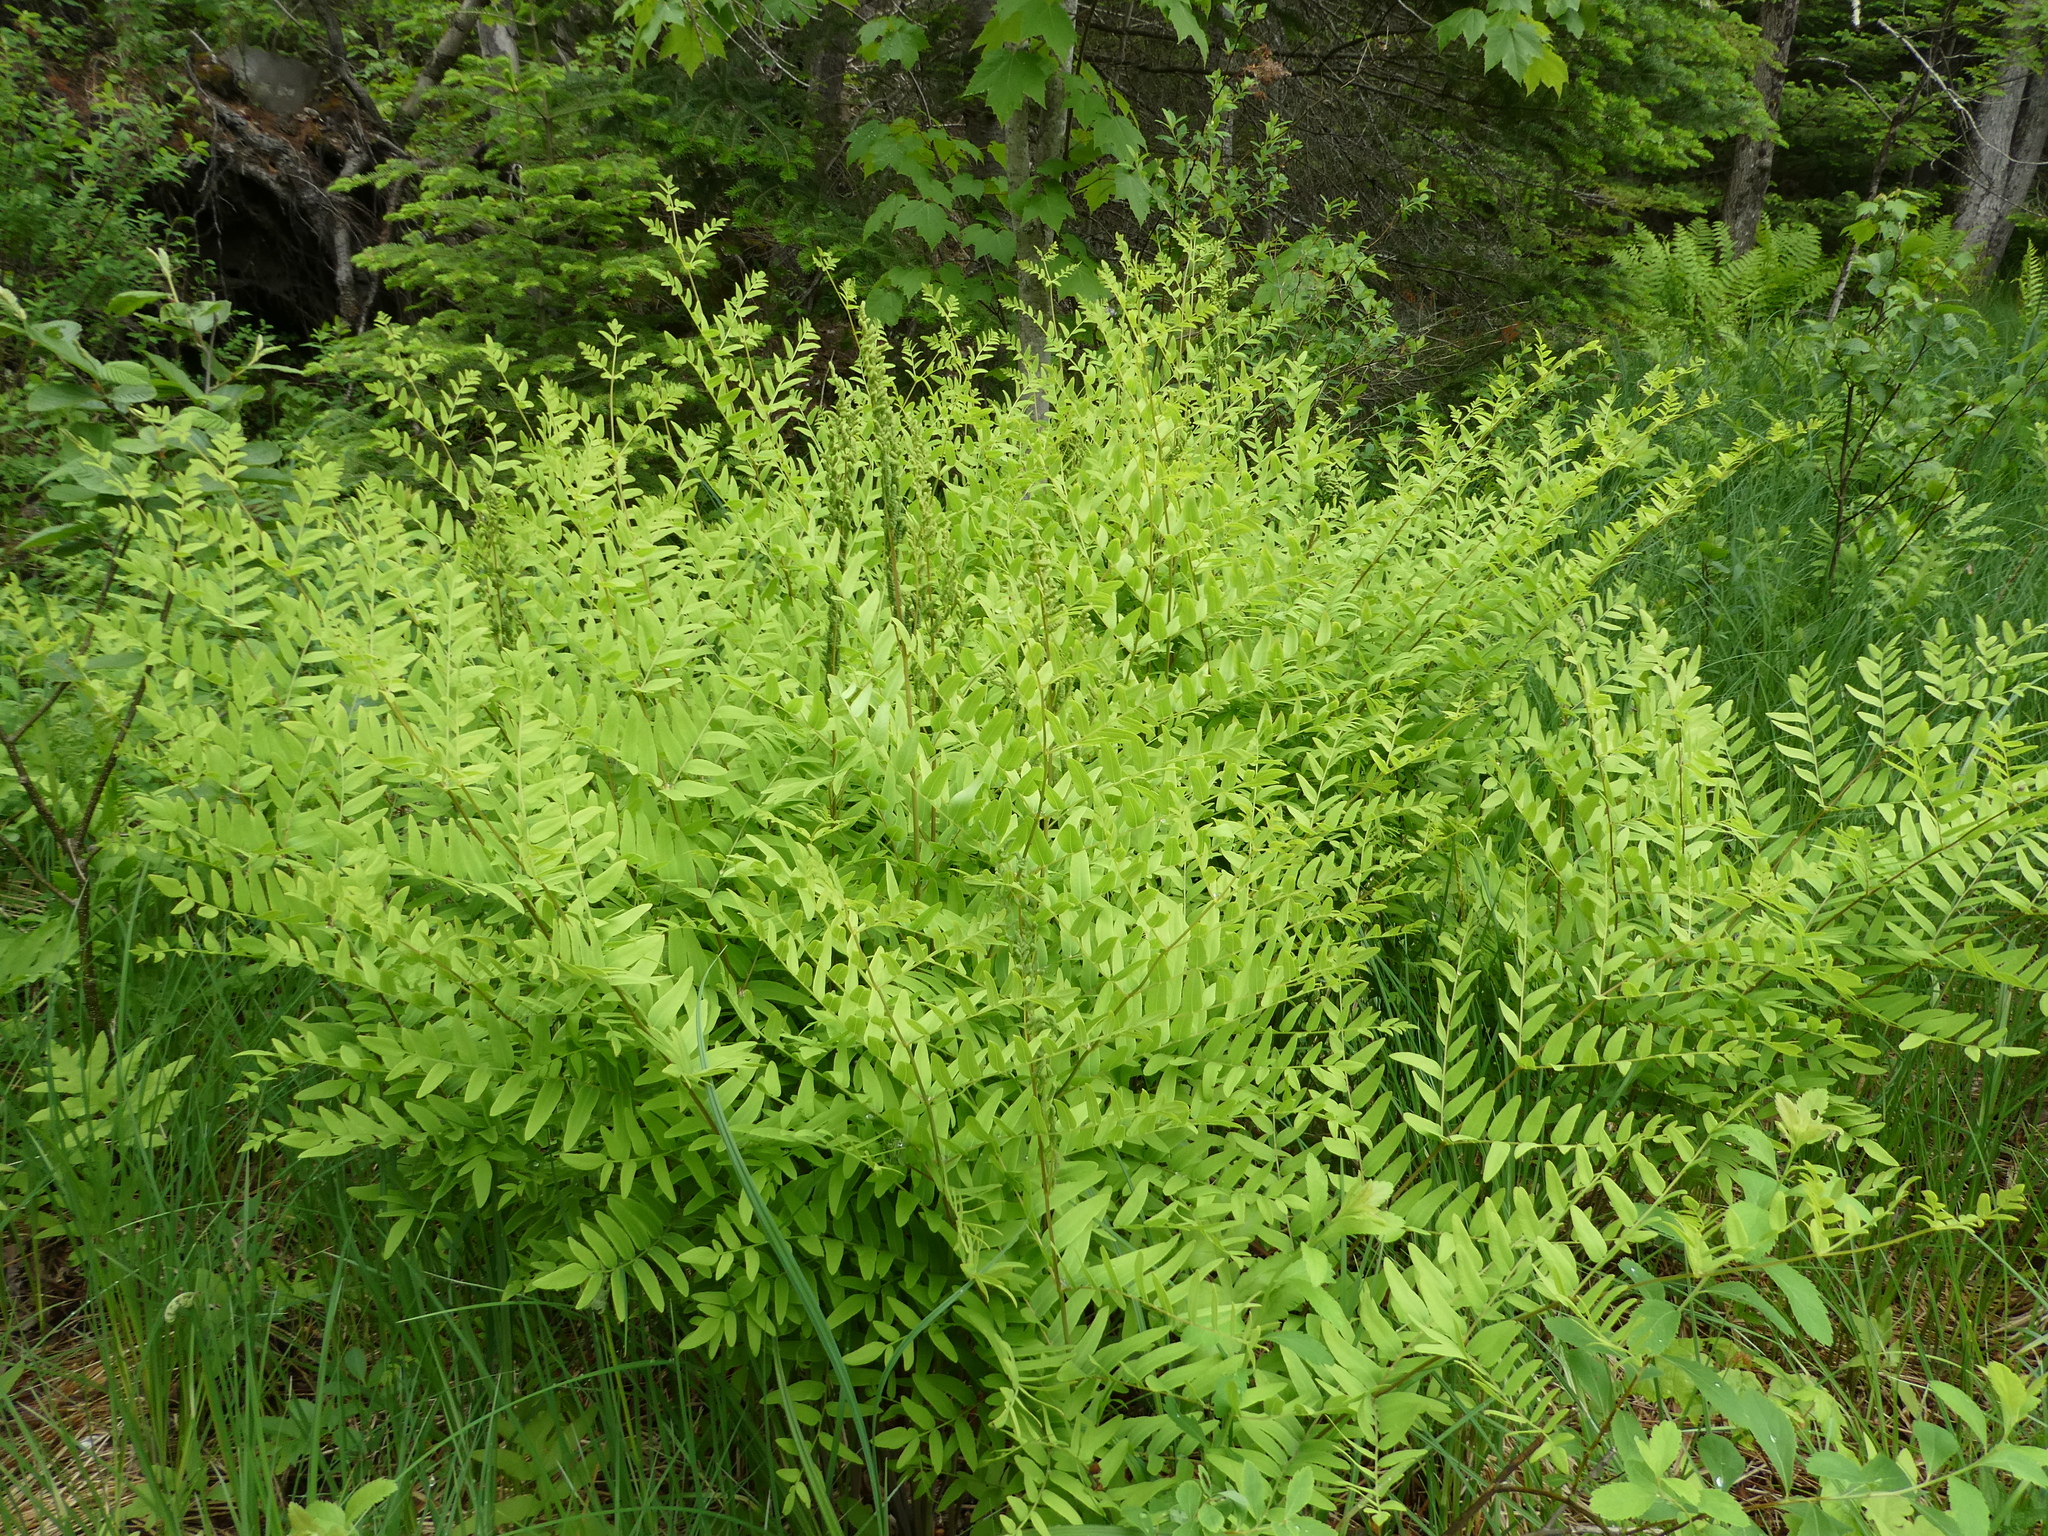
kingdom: Plantae
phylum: Tracheophyta
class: Polypodiopsida
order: Osmundales
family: Osmundaceae
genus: Osmunda
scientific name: Osmunda spectabilis
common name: American royal fern
